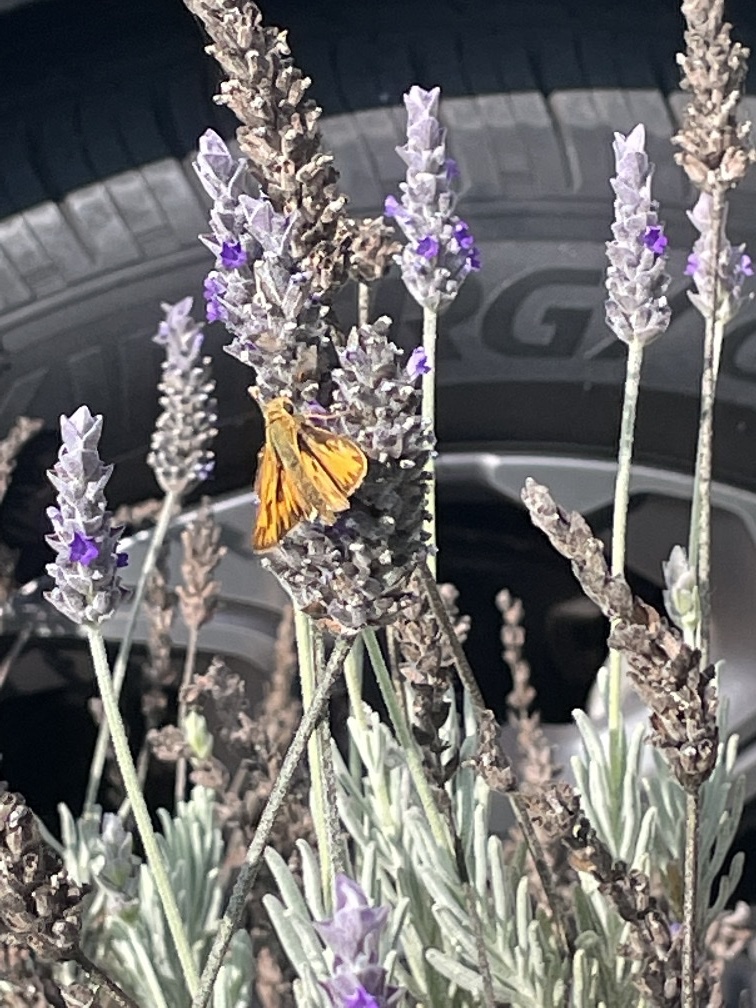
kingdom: Animalia
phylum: Arthropoda
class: Insecta
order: Lepidoptera
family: Hesperiidae
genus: Hylephila
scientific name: Hylephila phyleus
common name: Fiery skipper
